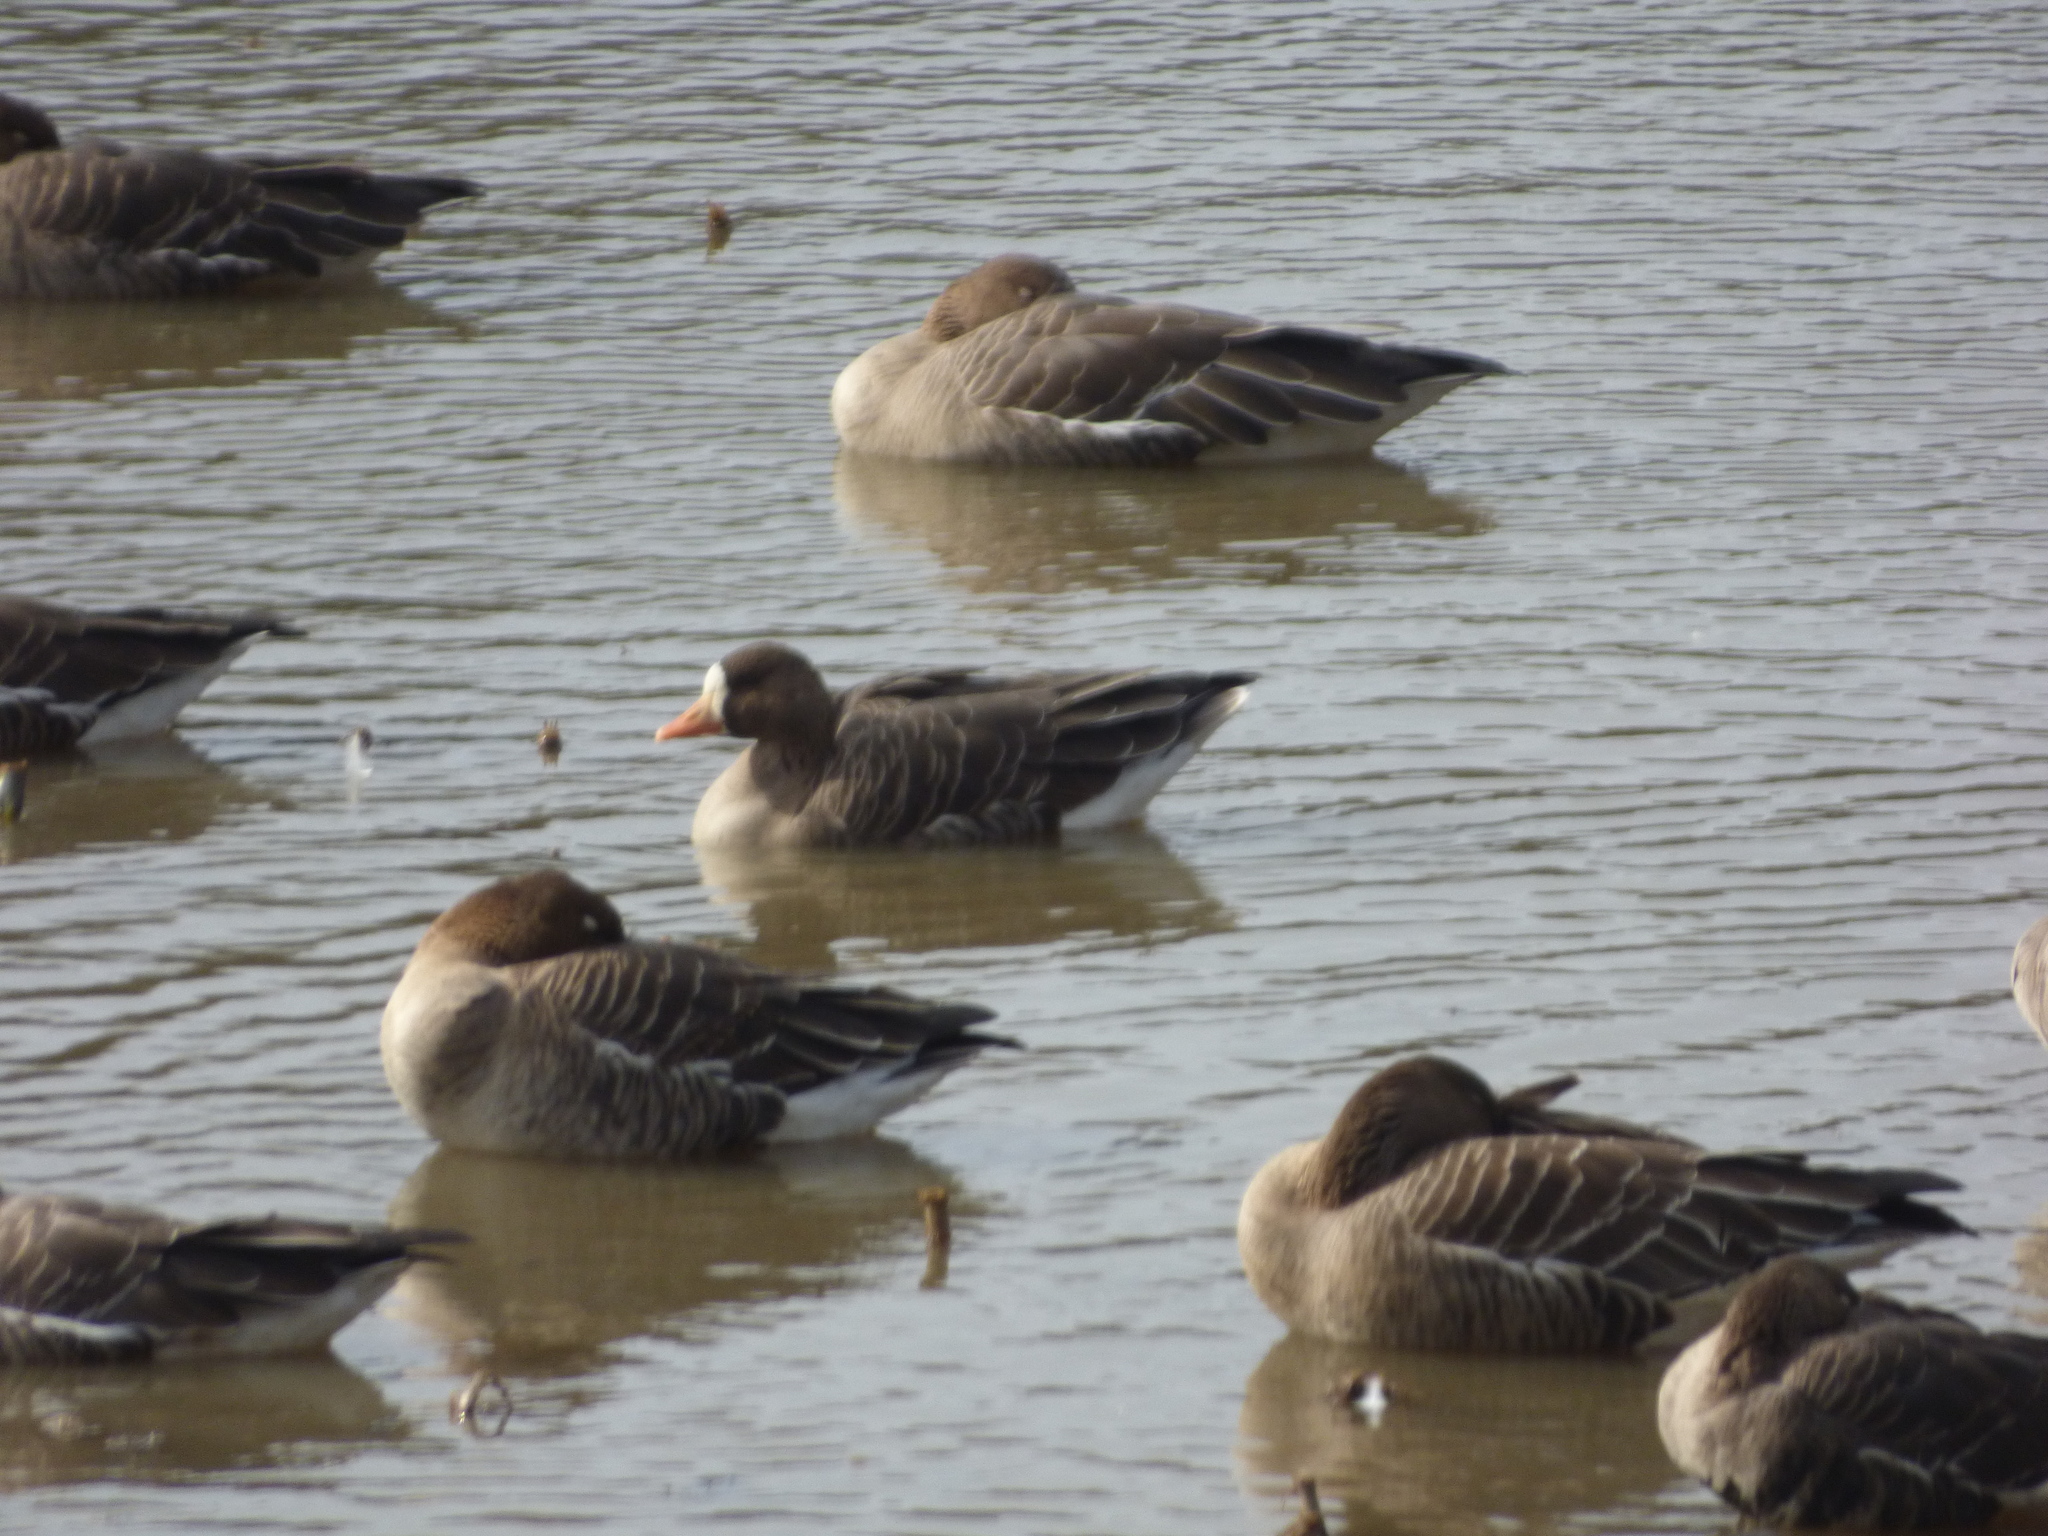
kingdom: Animalia
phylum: Chordata
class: Aves
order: Anseriformes
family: Anatidae
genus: Anser
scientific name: Anser albifrons
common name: Greater white-fronted goose
